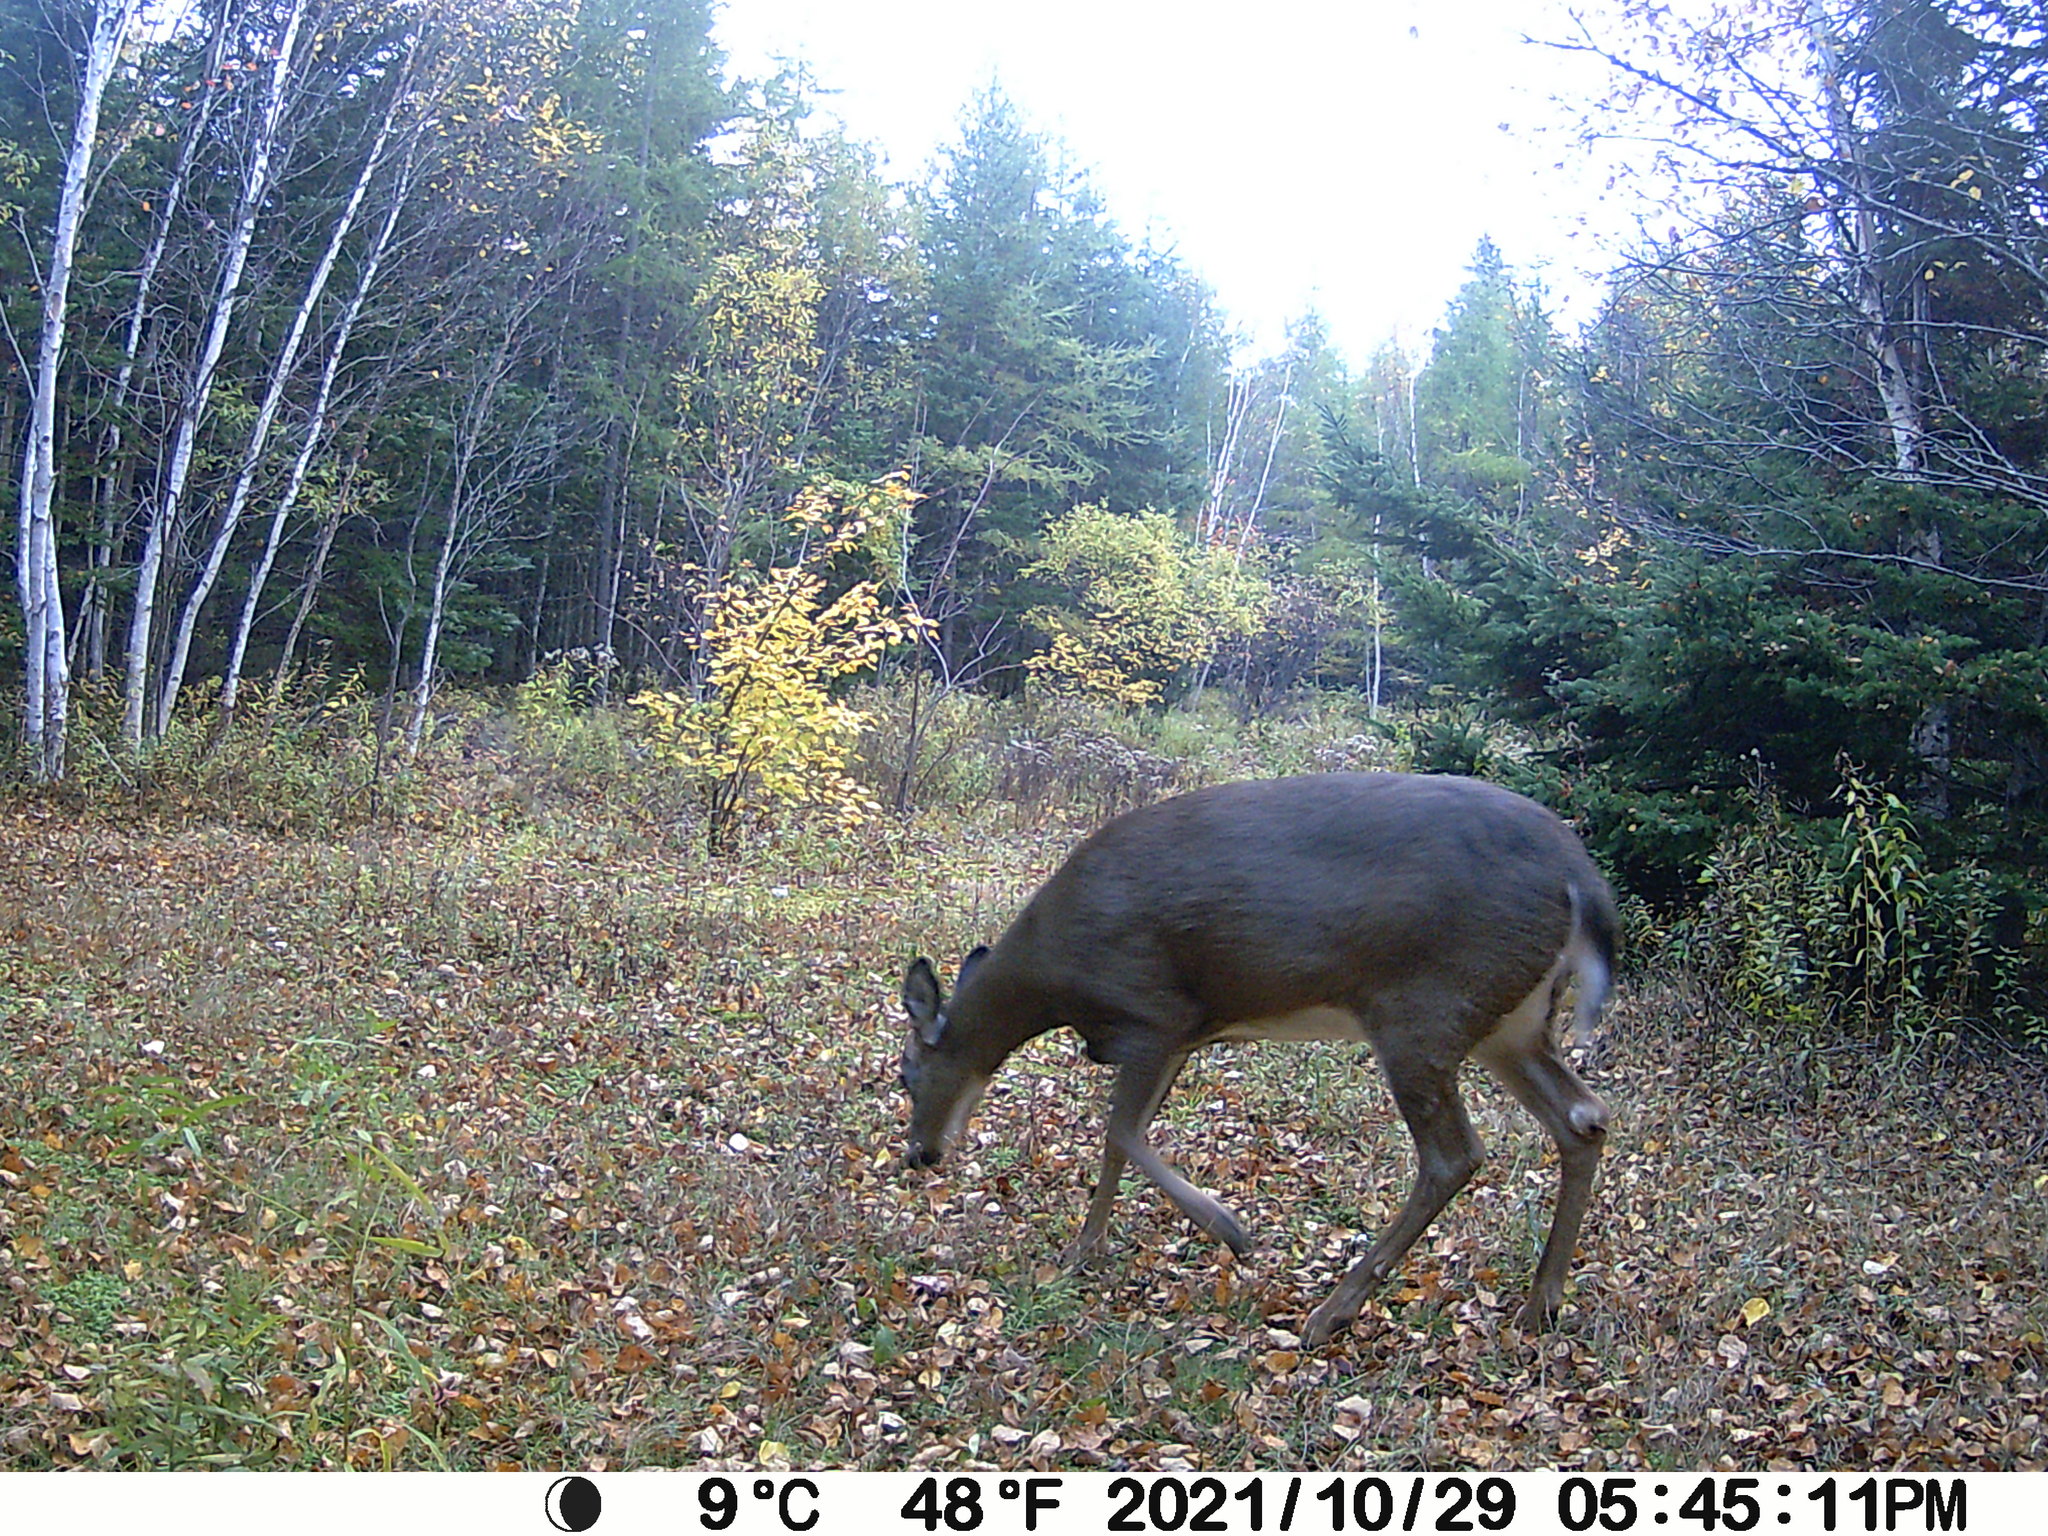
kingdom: Animalia
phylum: Chordata
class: Mammalia
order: Artiodactyla
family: Cervidae
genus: Odocoileus
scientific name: Odocoileus virginianus
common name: White-tailed deer
